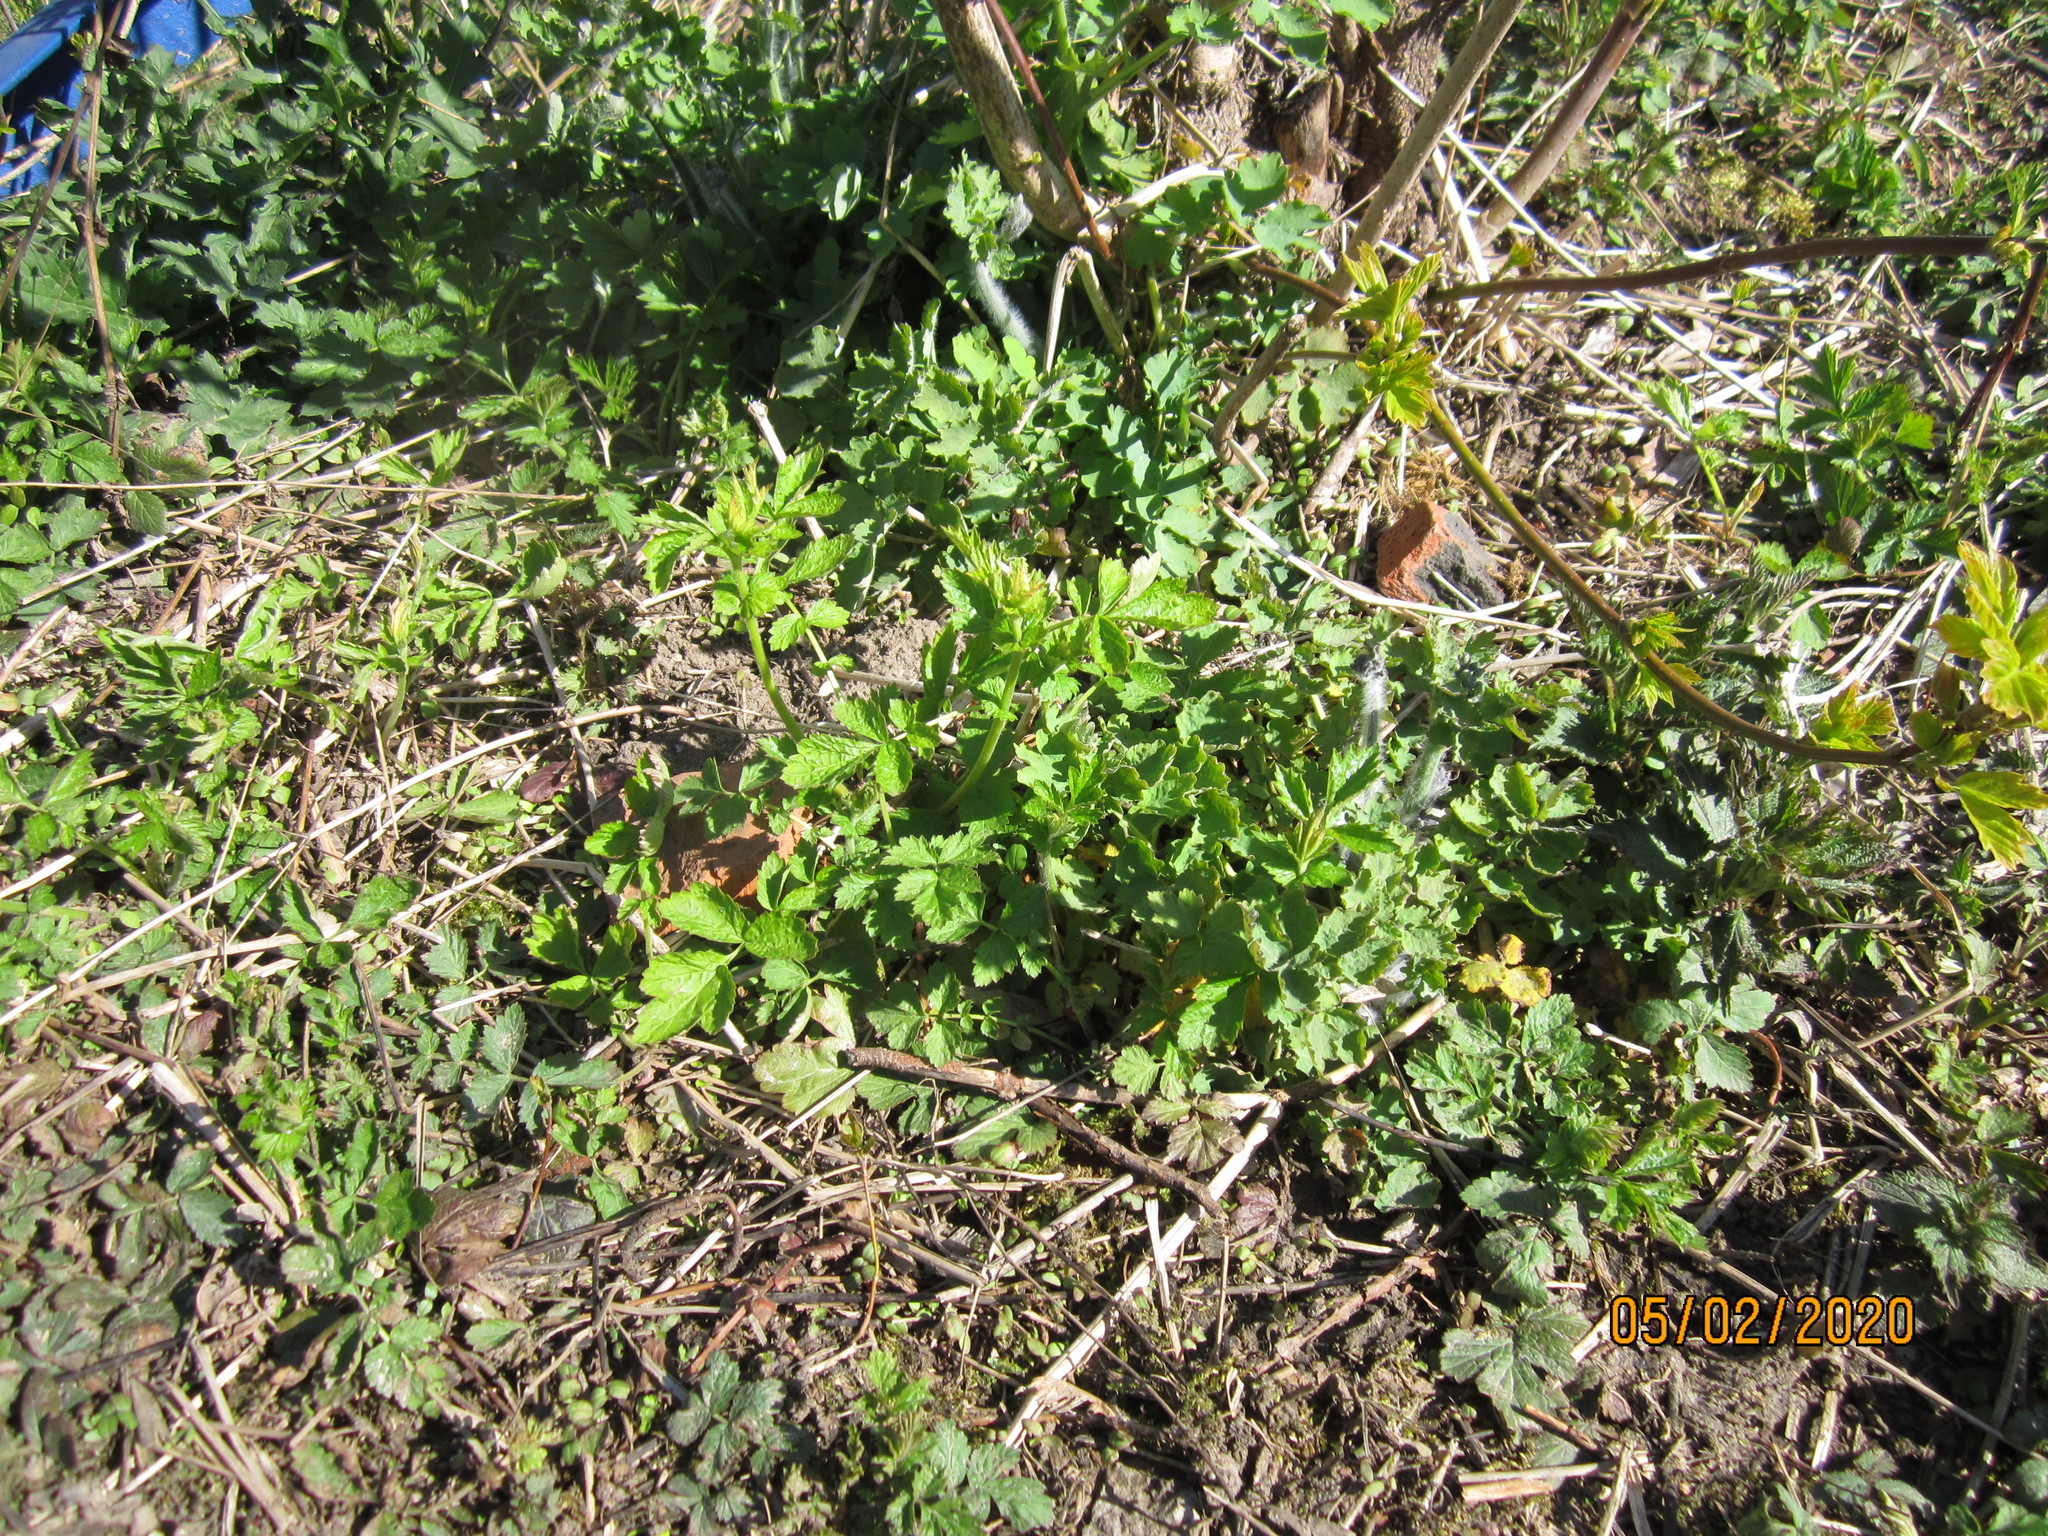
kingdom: Plantae
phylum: Tracheophyta
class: Magnoliopsida
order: Rosales
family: Rosaceae
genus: Geum
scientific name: Geum urbanum
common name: Wood avens
